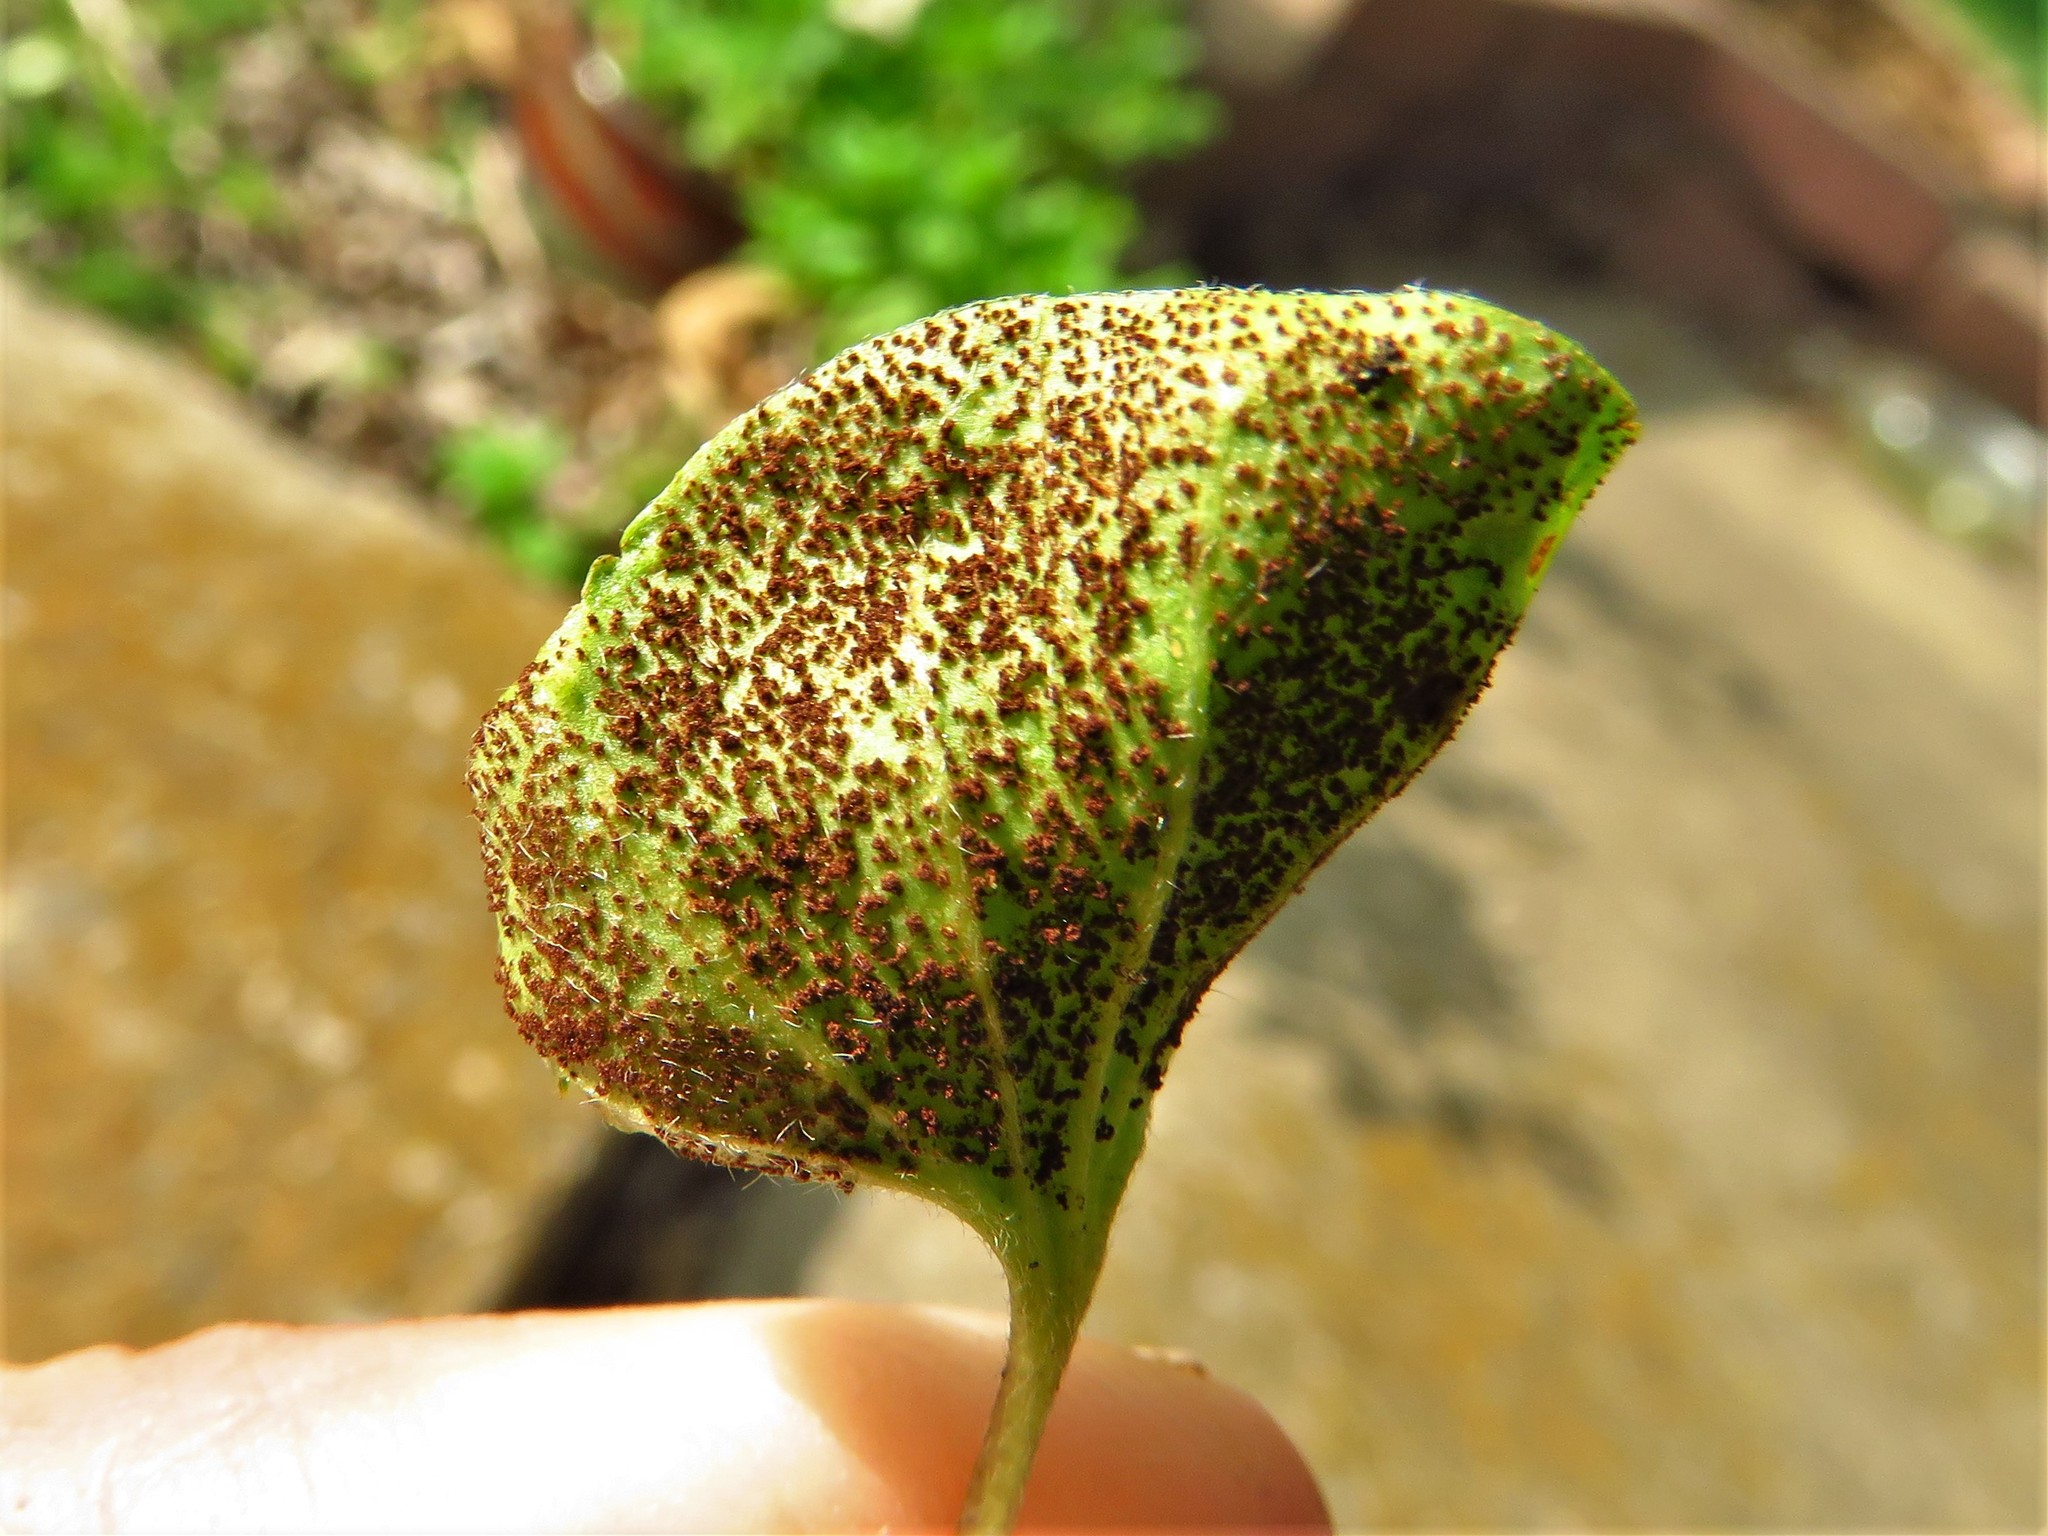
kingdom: Fungi
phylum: Basidiomycota
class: Pucciniomycetes
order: Pucciniales
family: Pucciniaceae
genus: Puccinia
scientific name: Puccinia dichondrae
